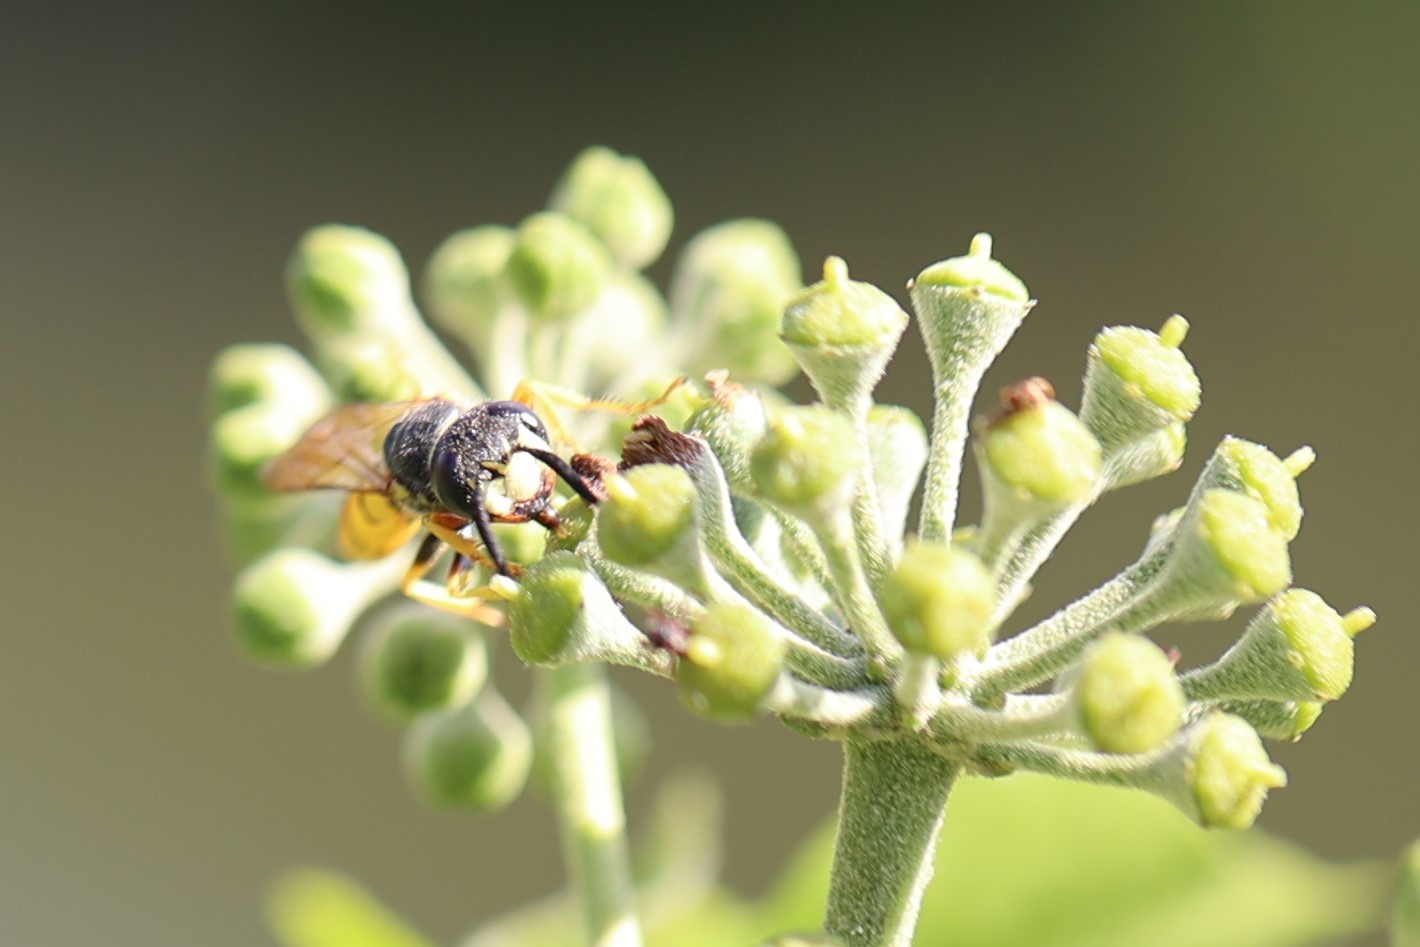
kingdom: Animalia
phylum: Arthropoda
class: Insecta
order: Hymenoptera
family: Crabronidae
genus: Philanthus
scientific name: Philanthus triangulum
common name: Bee wolf
